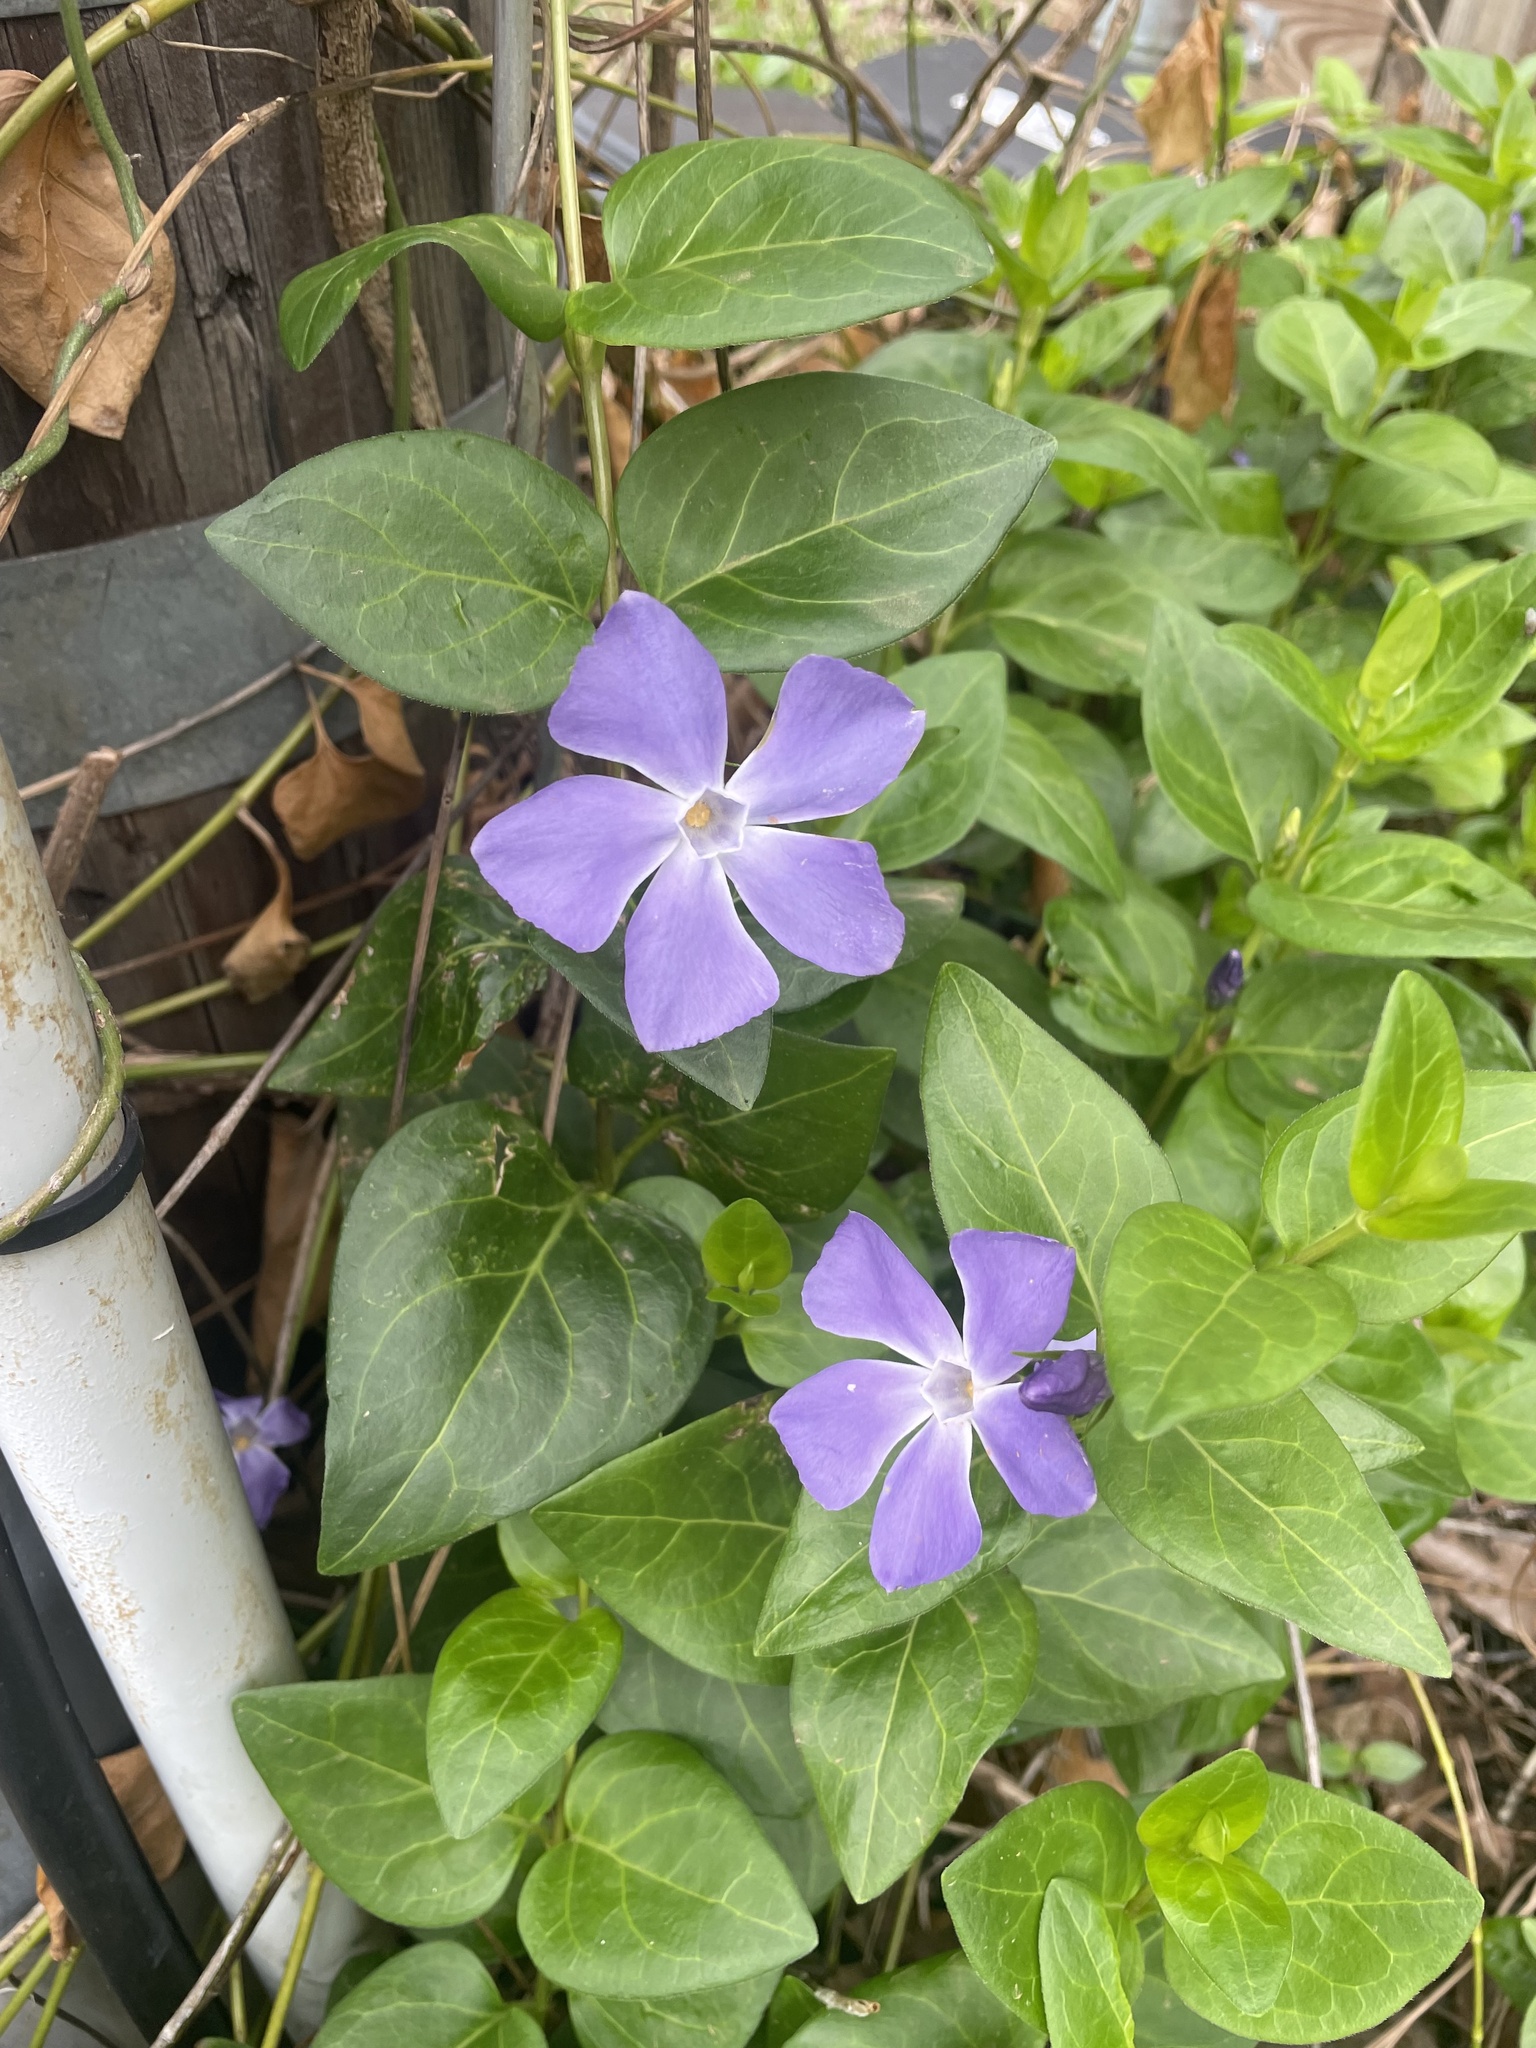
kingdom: Plantae
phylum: Tracheophyta
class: Magnoliopsida
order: Gentianales
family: Apocynaceae
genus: Vinca
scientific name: Vinca major
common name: Greater periwinkle
